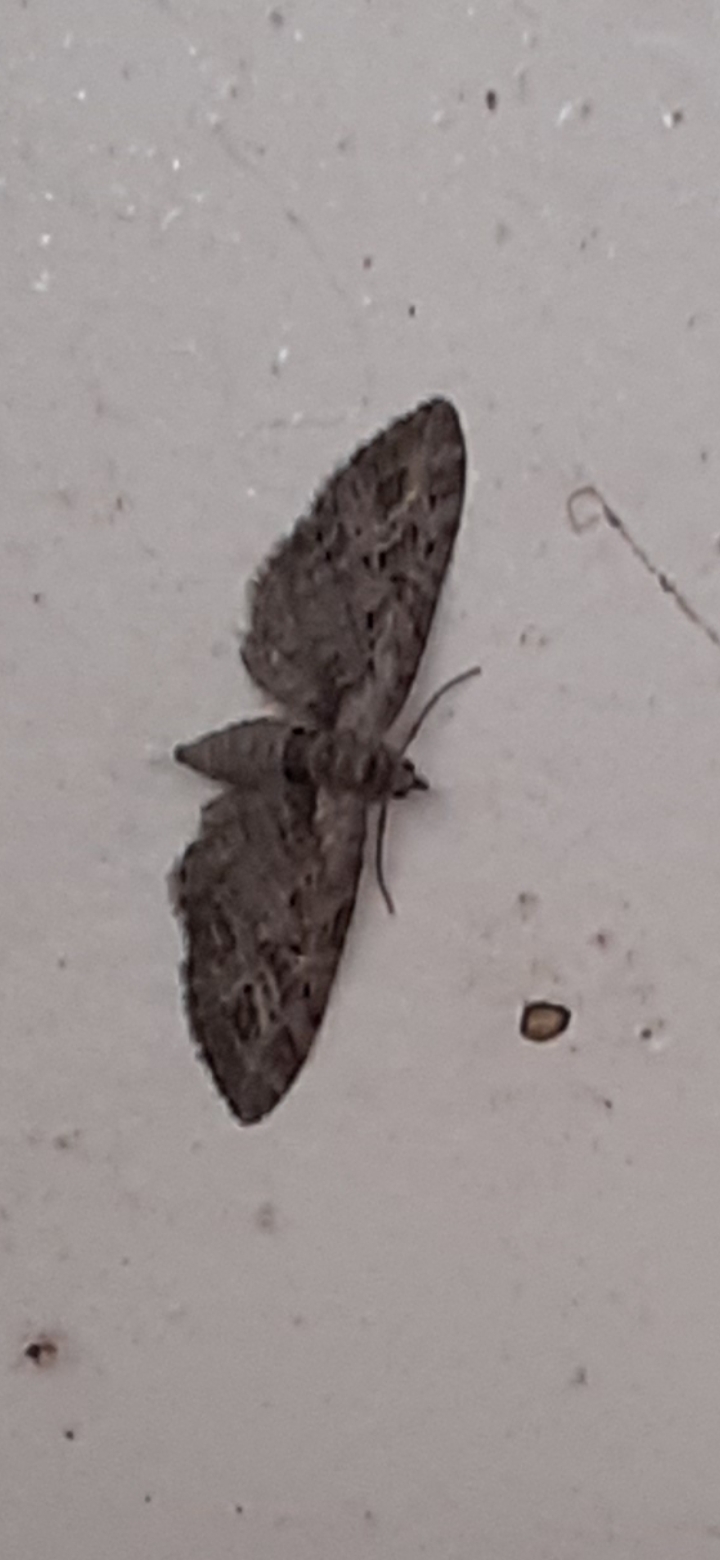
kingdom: Animalia
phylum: Arthropoda
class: Insecta
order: Lepidoptera
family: Geometridae
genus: Eupithecia
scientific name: Eupithecia exiguata
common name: Mottled pug
